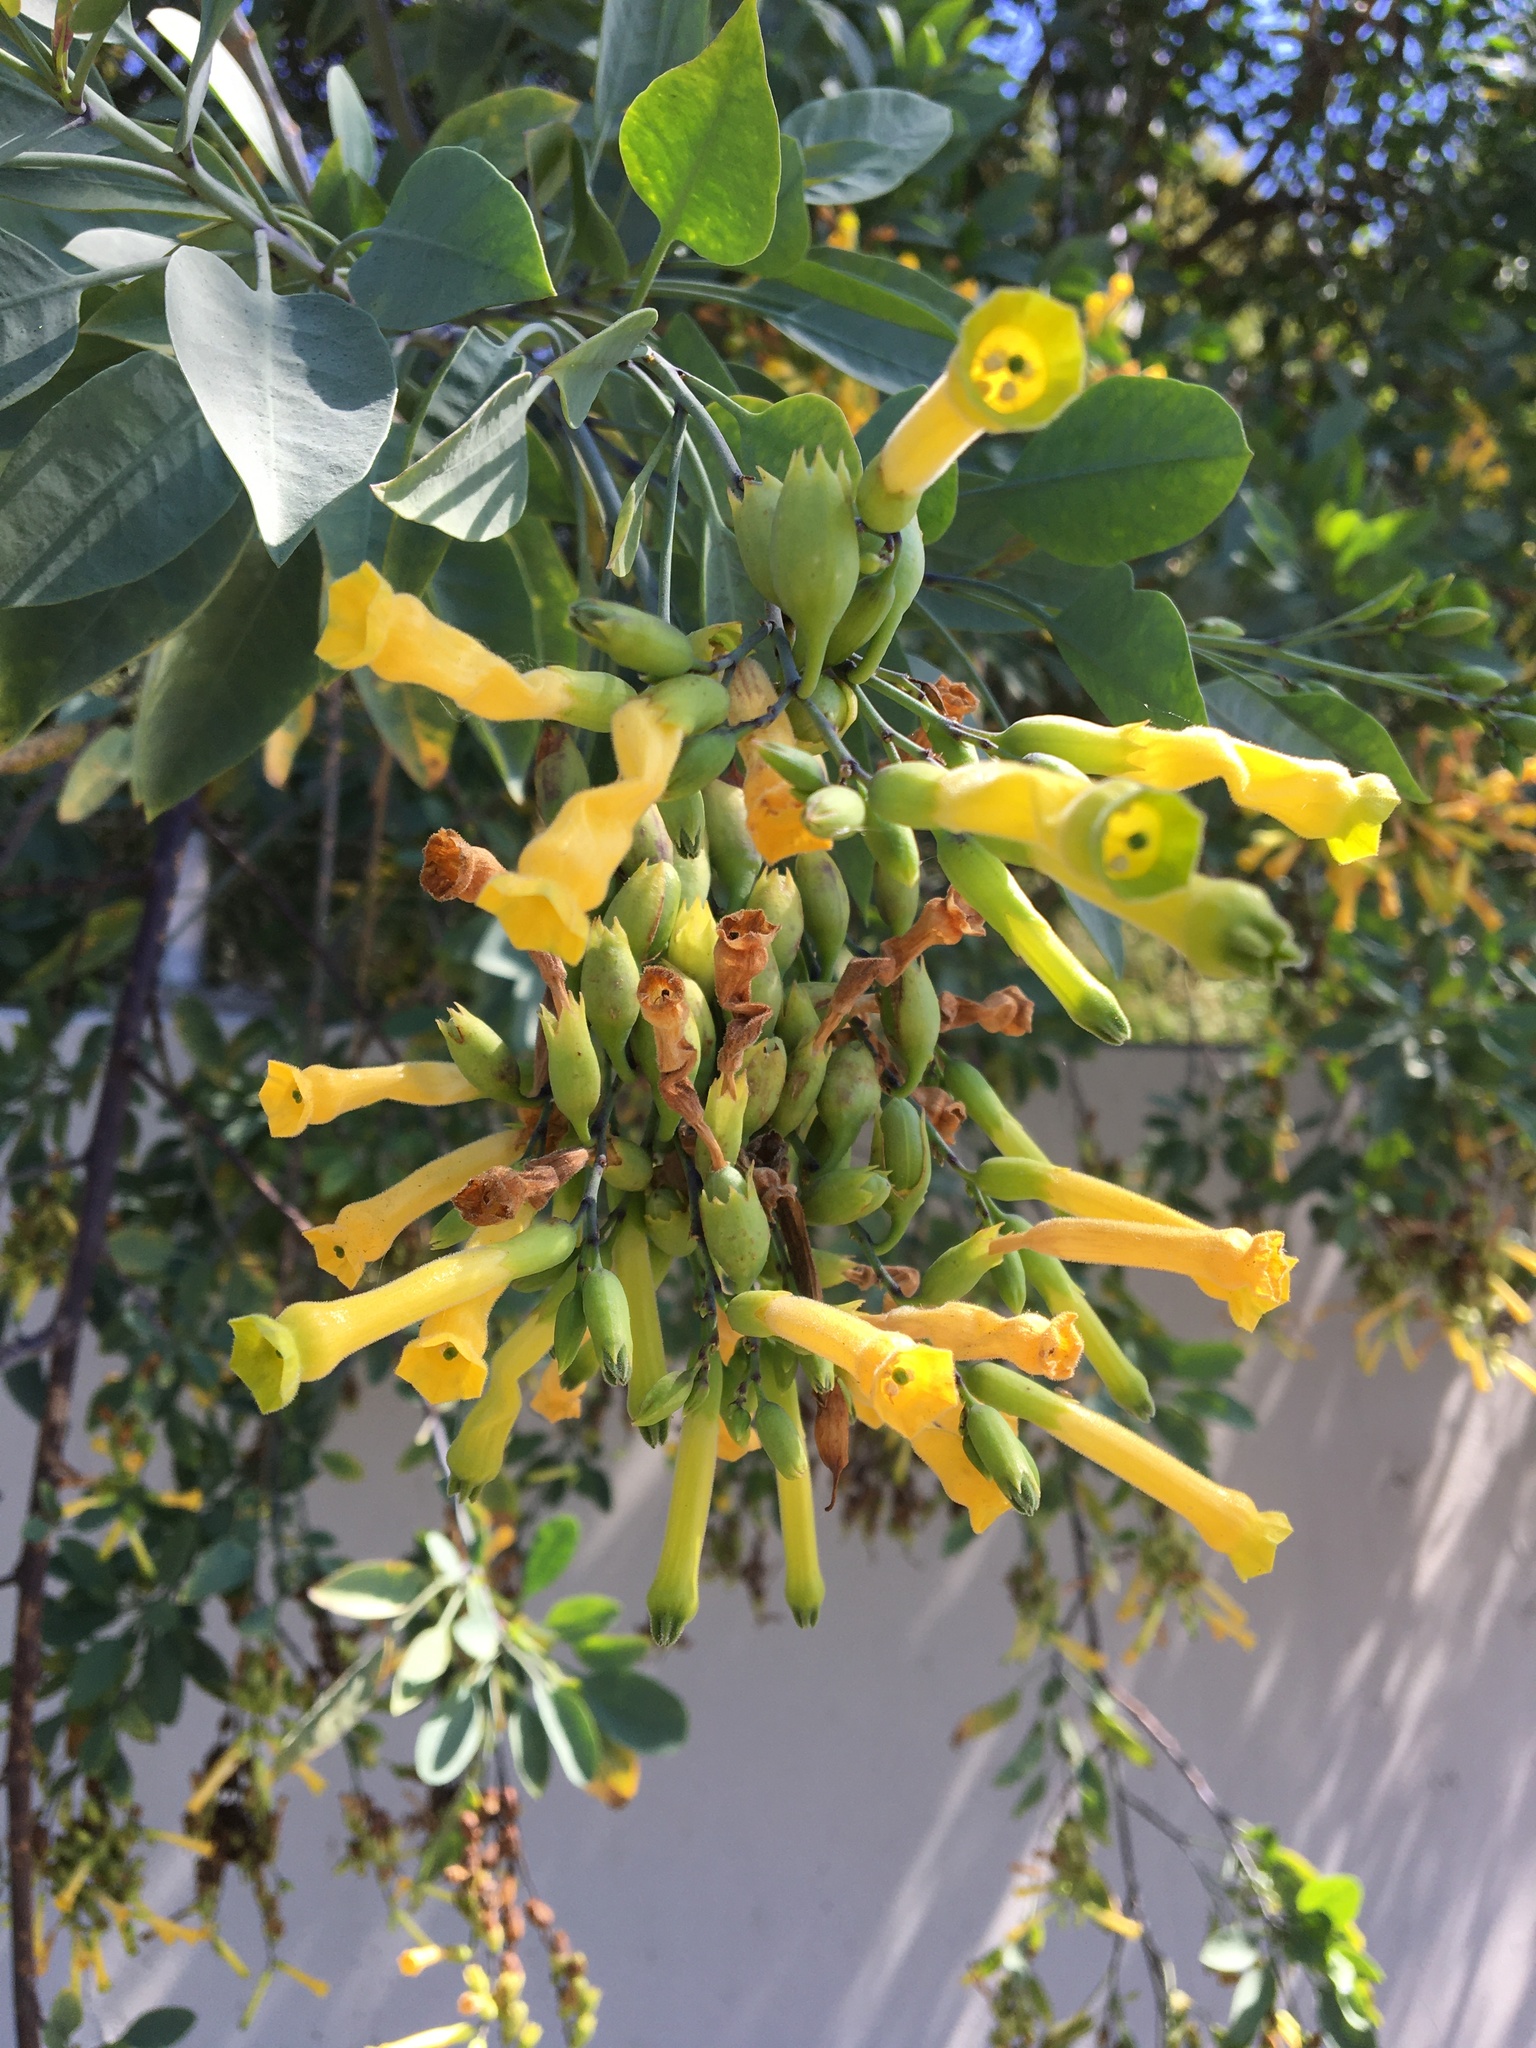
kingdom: Plantae
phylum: Tracheophyta
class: Magnoliopsida
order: Solanales
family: Solanaceae
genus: Nicotiana
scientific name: Nicotiana glauca
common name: Tree tobacco
